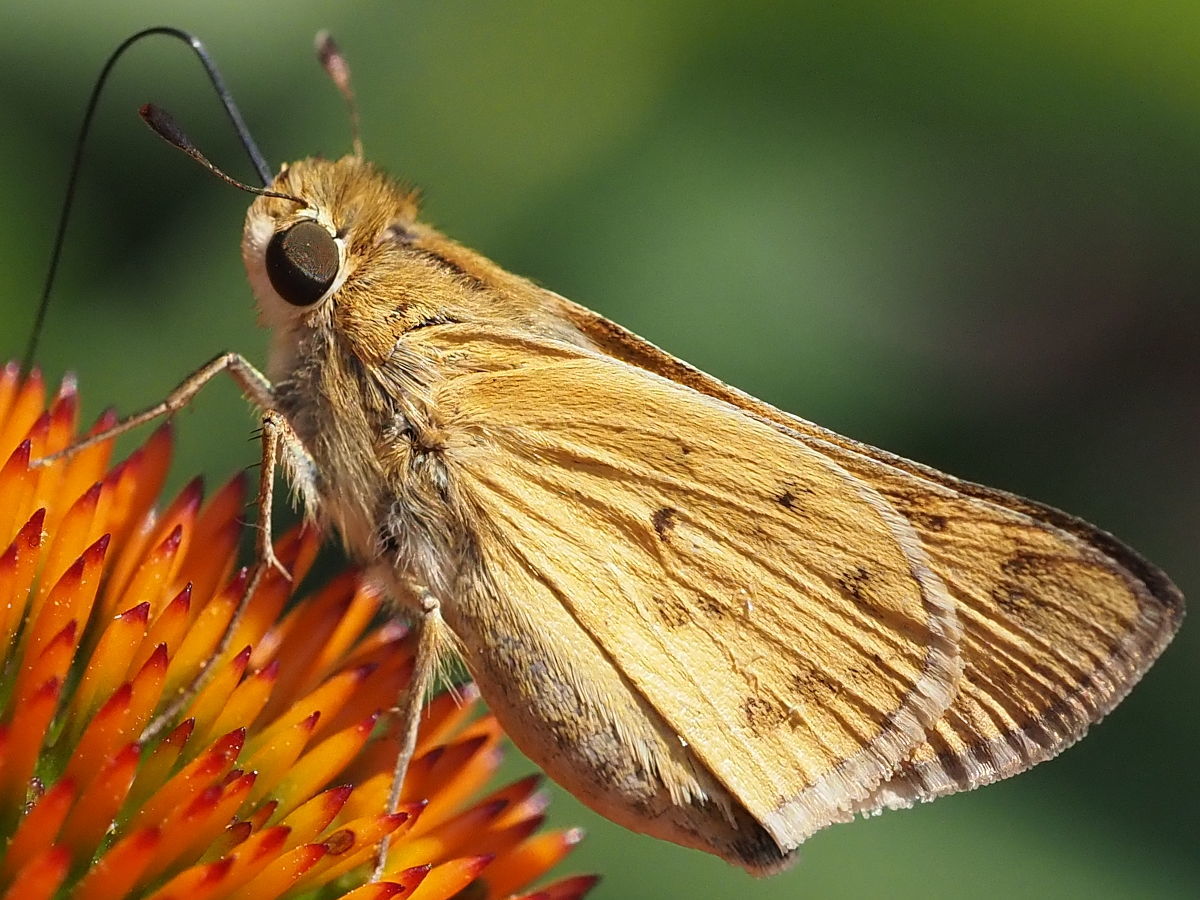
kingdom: Animalia
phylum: Arthropoda
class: Insecta
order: Lepidoptera
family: Hesperiidae
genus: Hylephila
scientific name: Hylephila phyleus
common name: Fiery skipper
